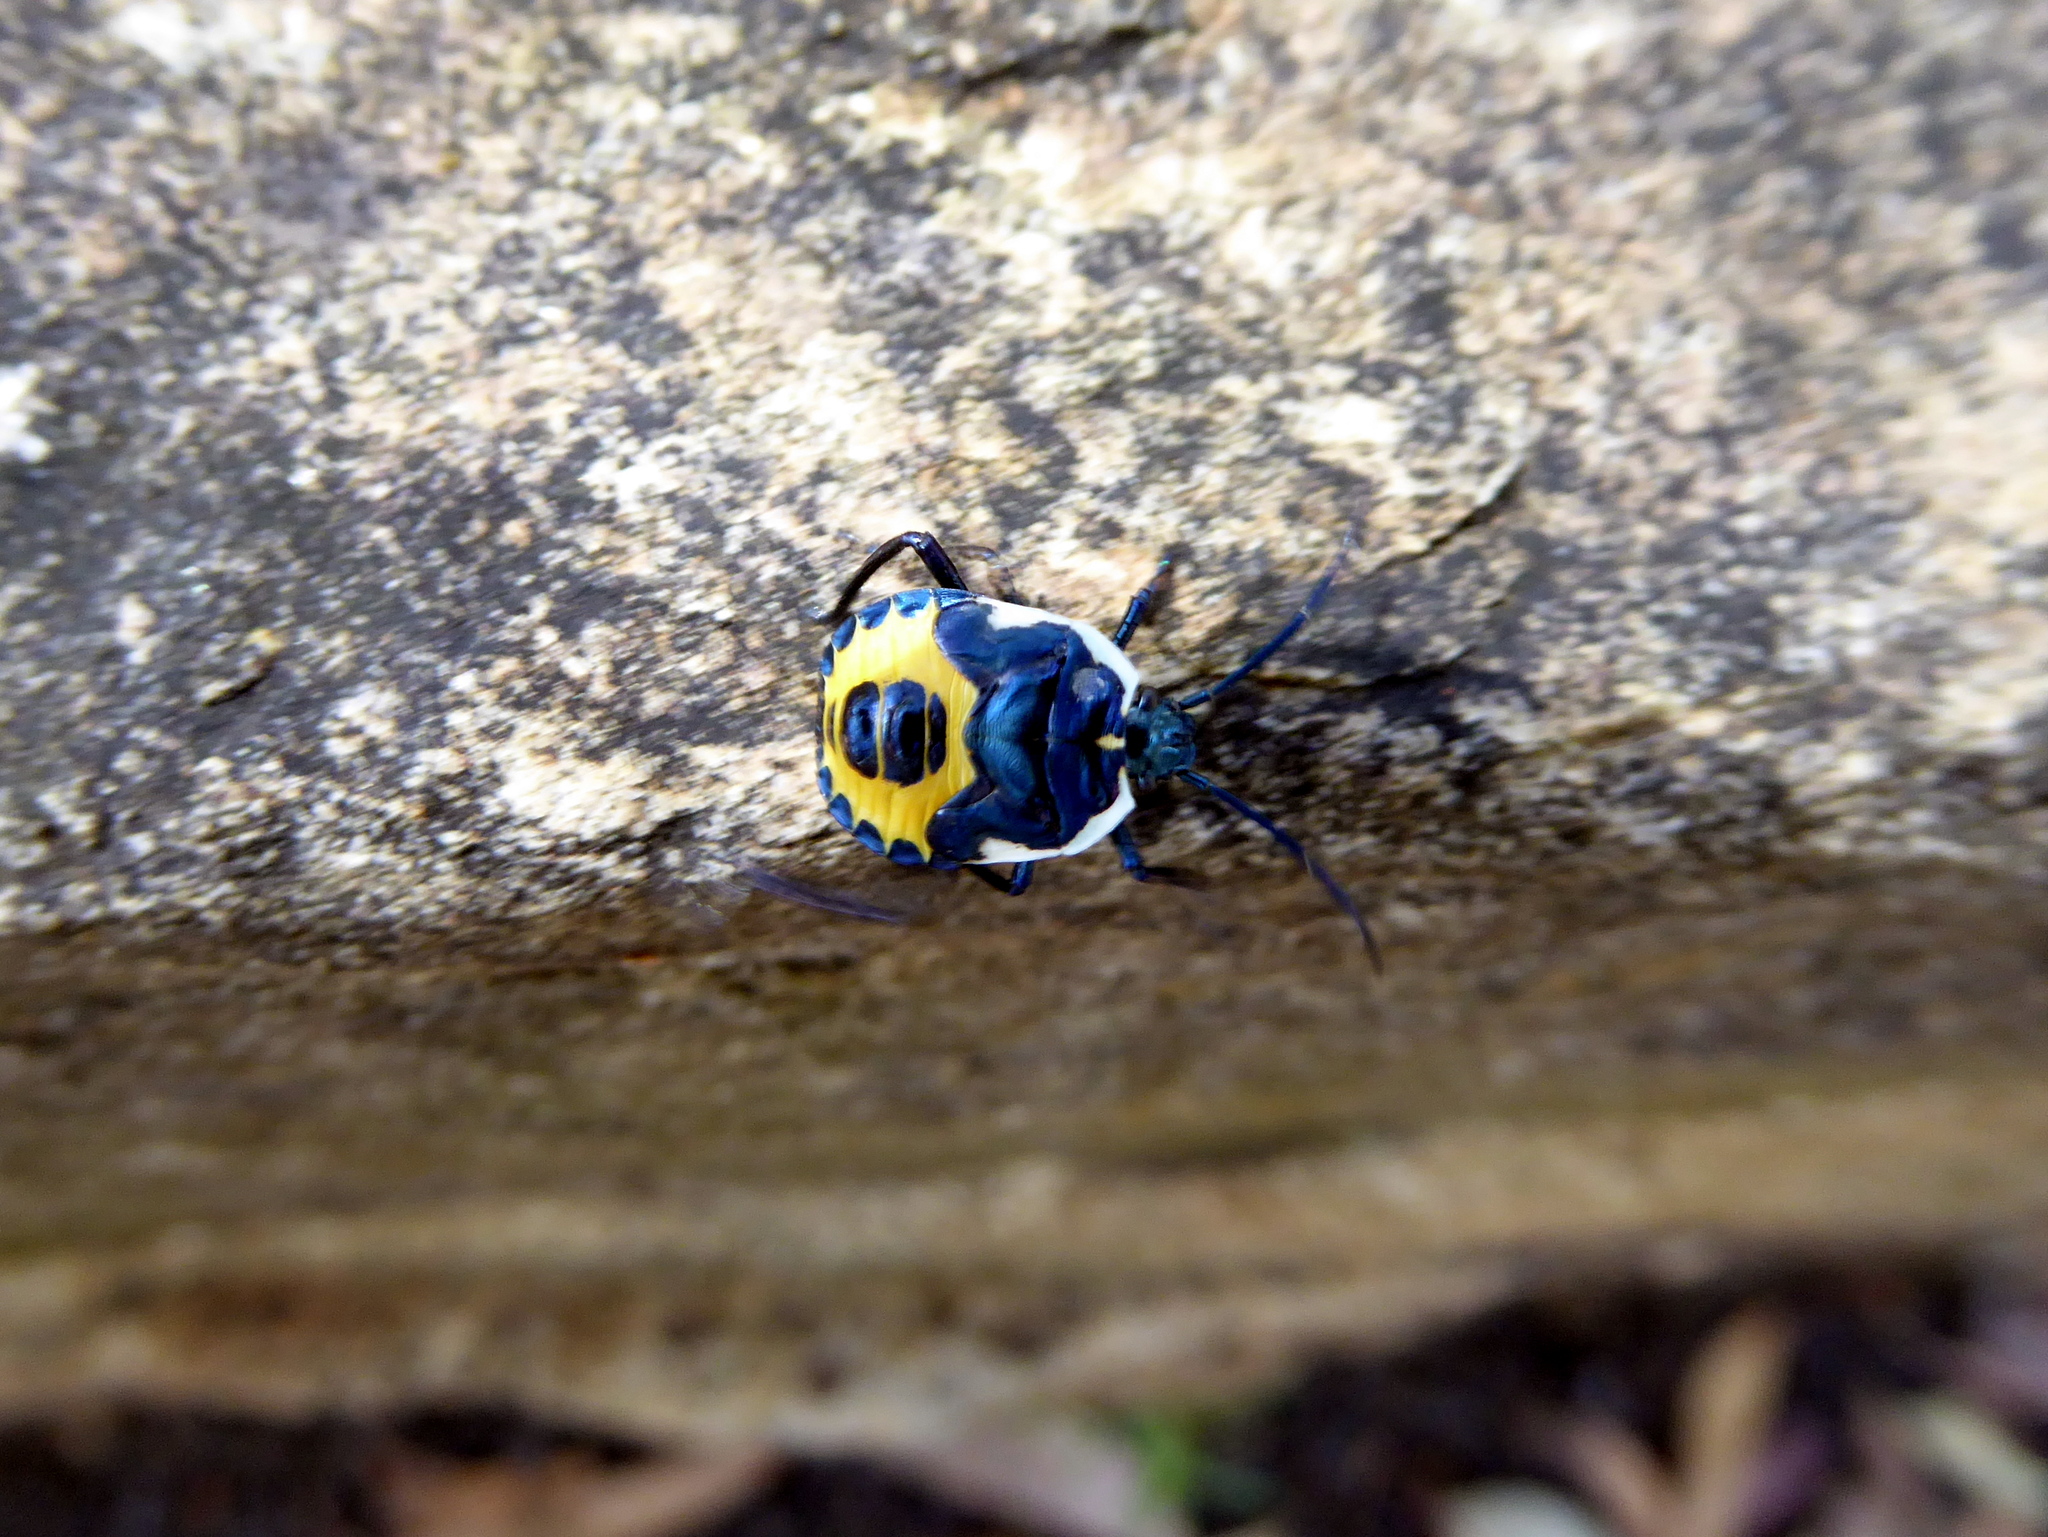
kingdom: Animalia
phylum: Arthropoda
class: Insecta
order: Hemiptera
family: Pentatomidae
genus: Commius
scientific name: Commius
